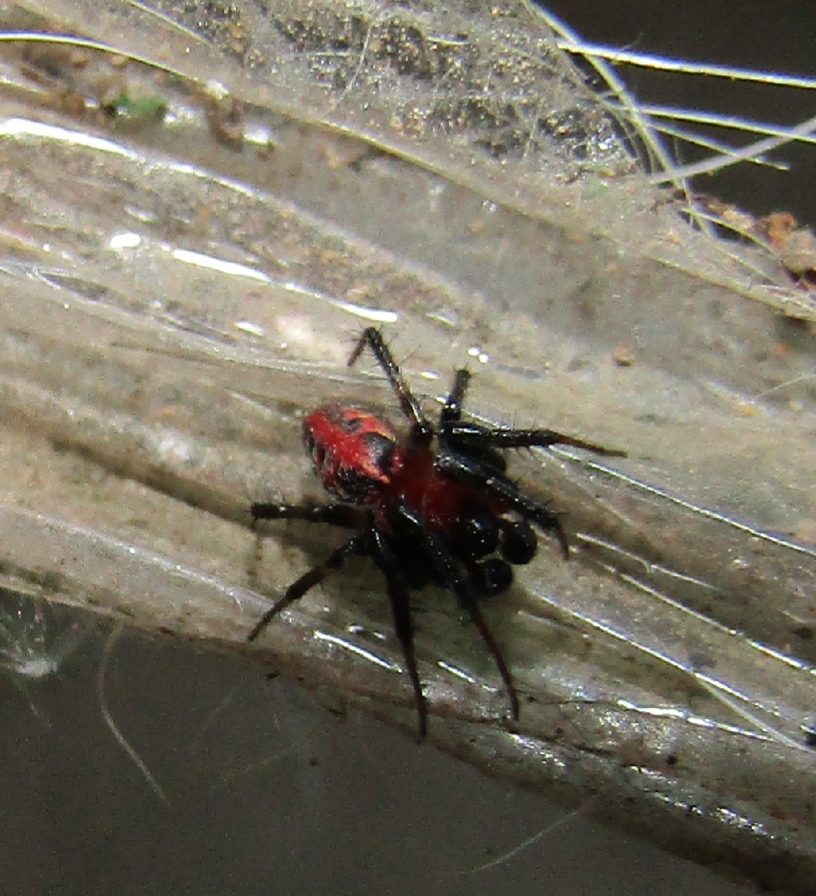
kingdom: Animalia
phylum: Arthropoda
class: Arachnida
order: Araneae
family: Araneidae
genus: Alpaida
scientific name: Alpaida versicolor
